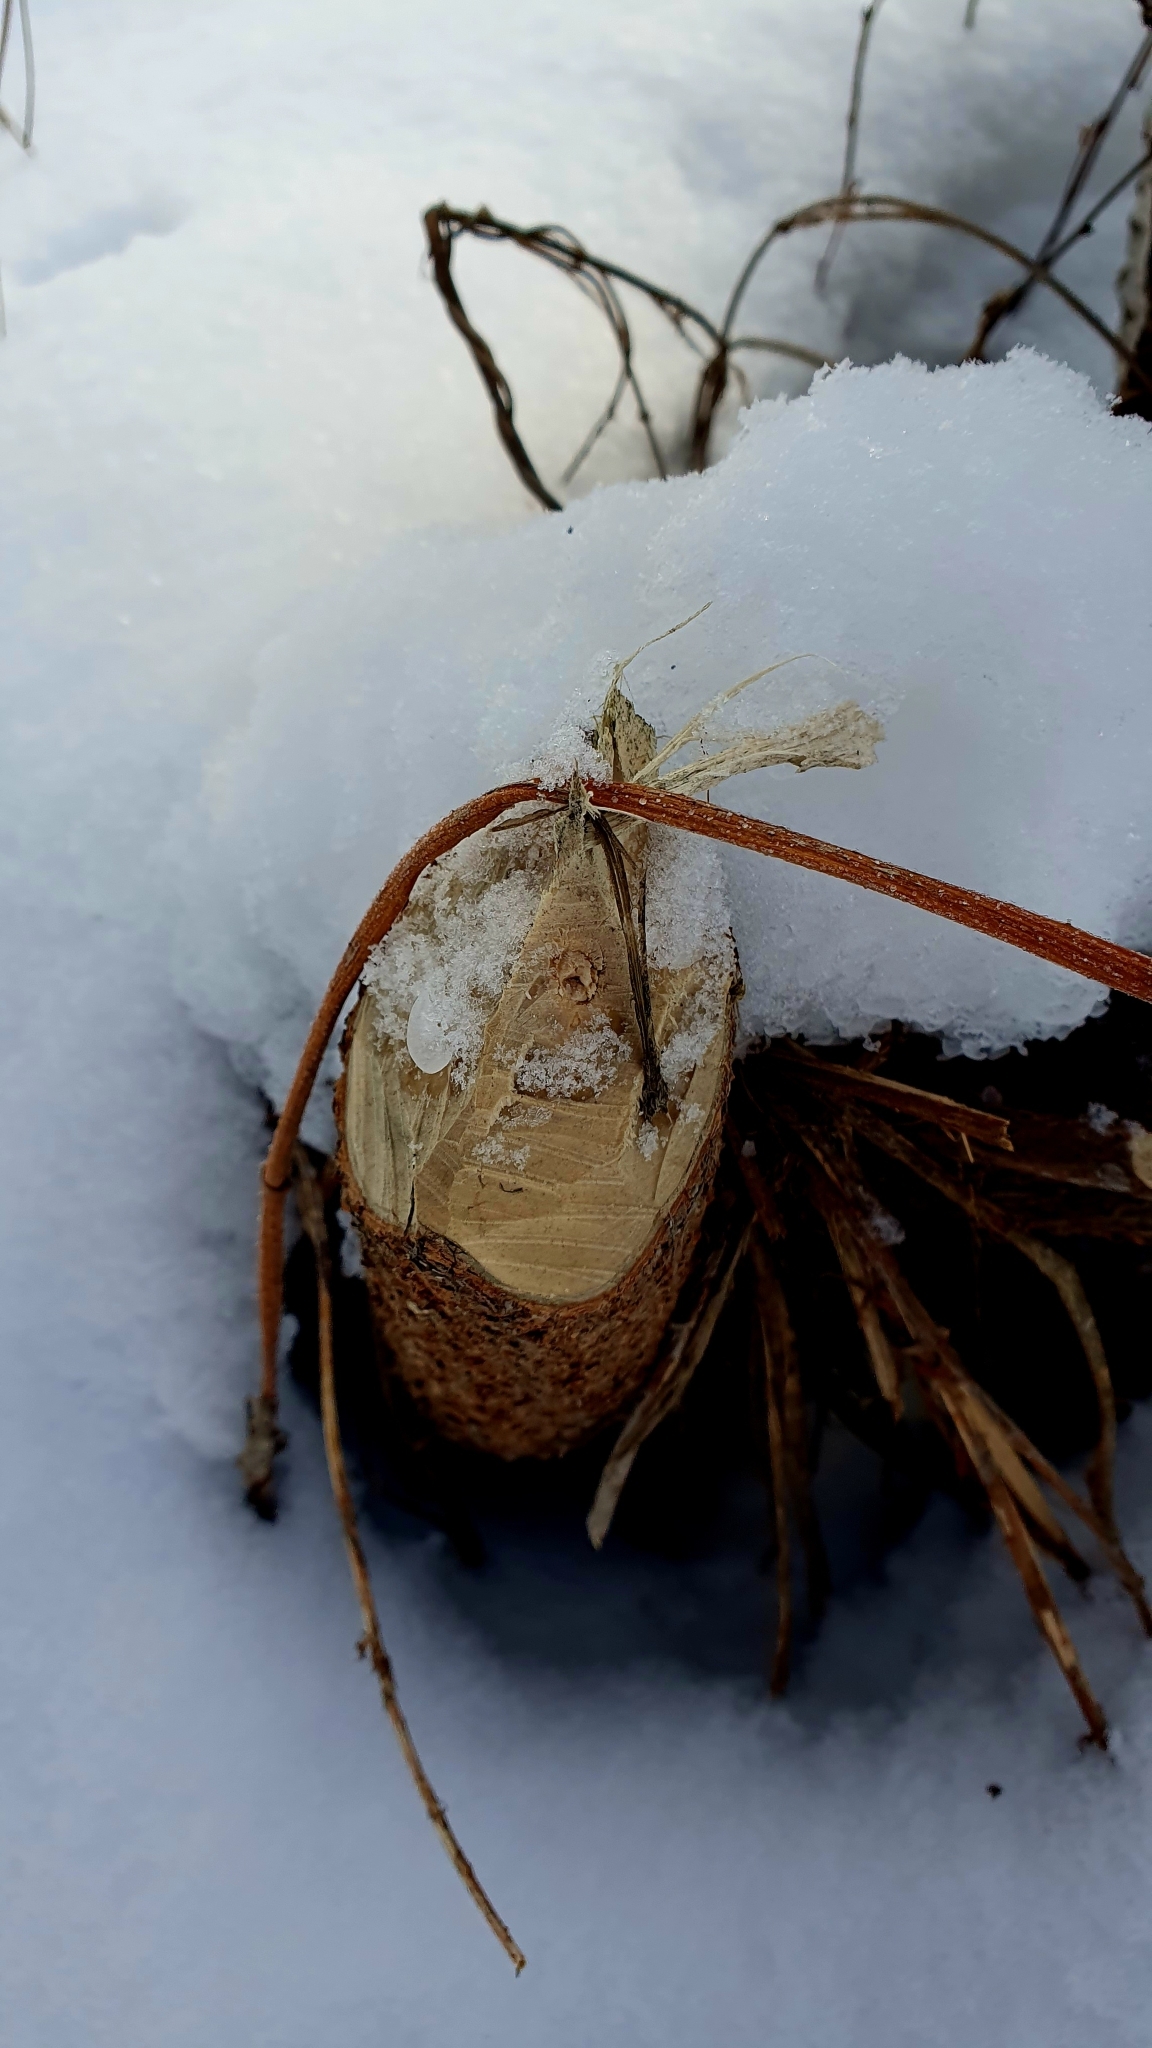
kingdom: Animalia
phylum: Chordata
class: Mammalia
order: Rodentia
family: Castoridae
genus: Castor
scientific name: Castor fiber
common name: Eurasian beaver
